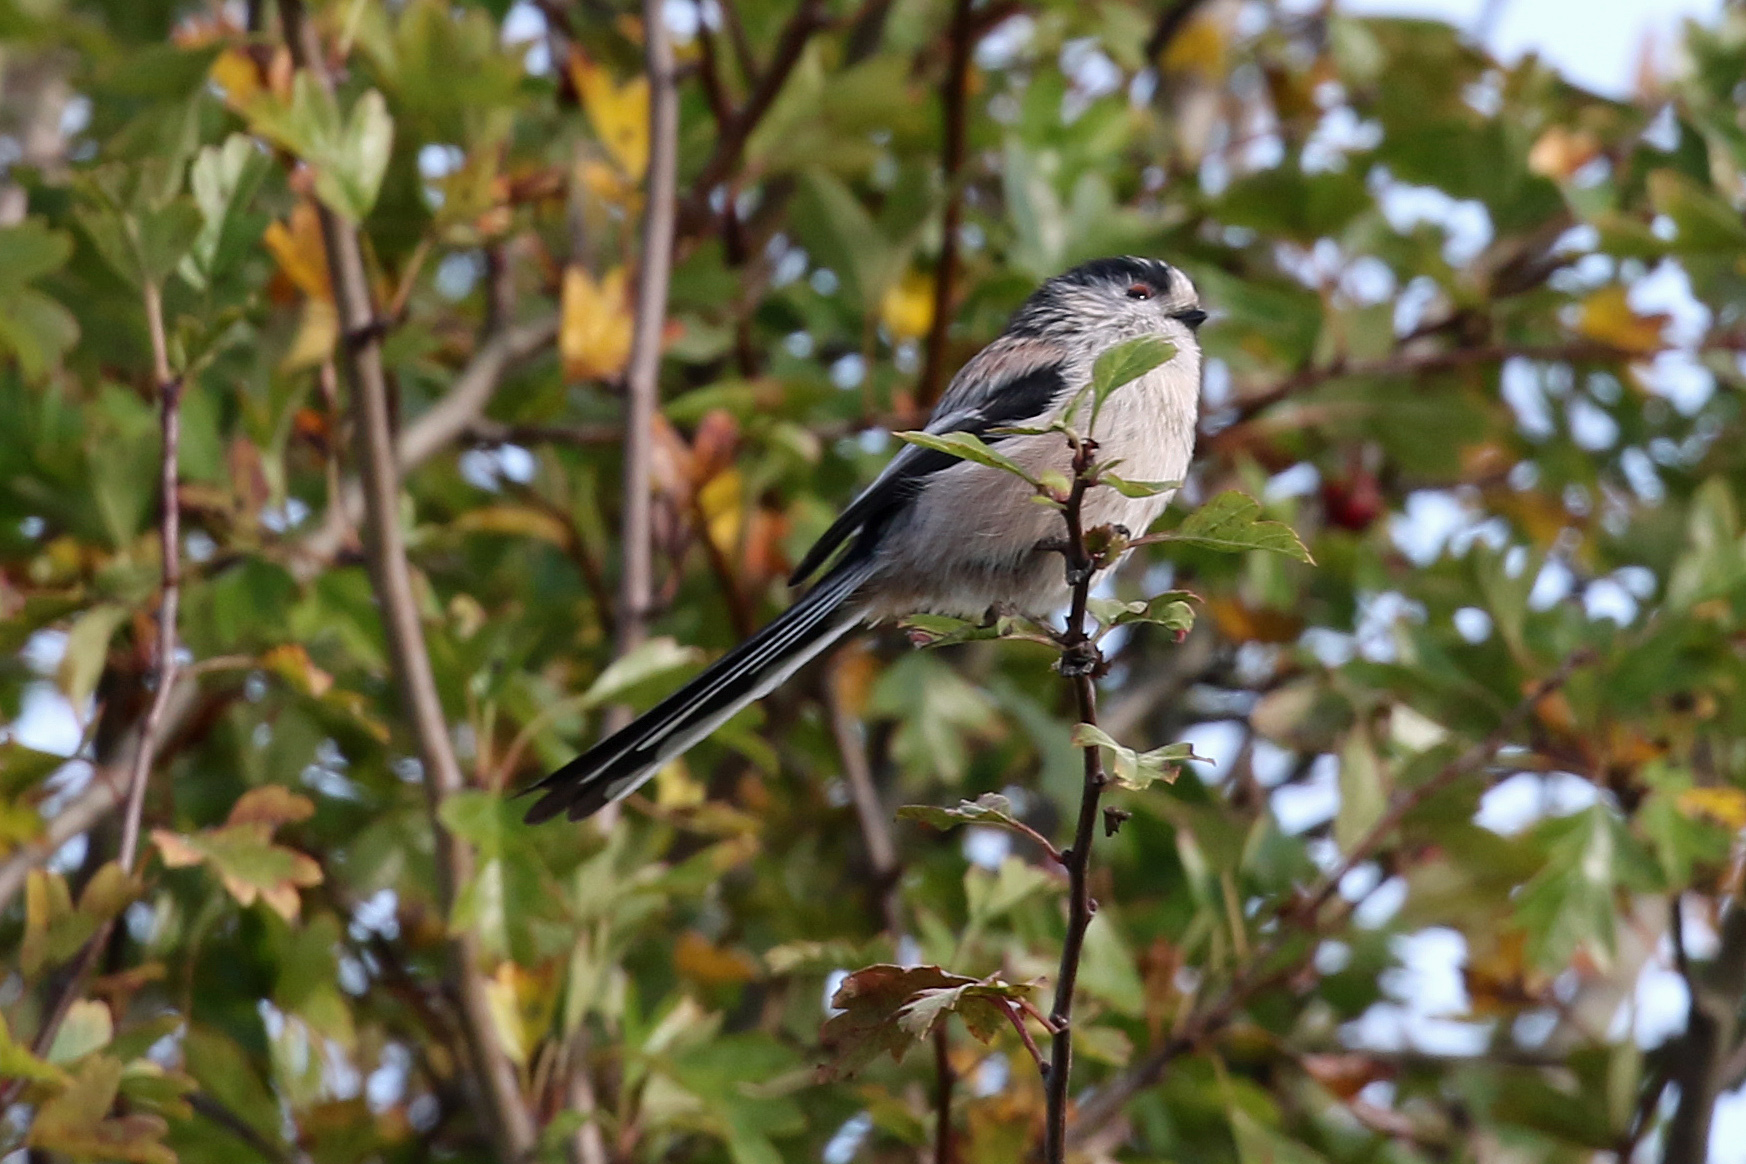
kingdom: Animalia
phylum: Chordata
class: Aves
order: Passeriformes
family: Aegithalidae
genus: Aegithalos
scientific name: Aegithalos caudatus
